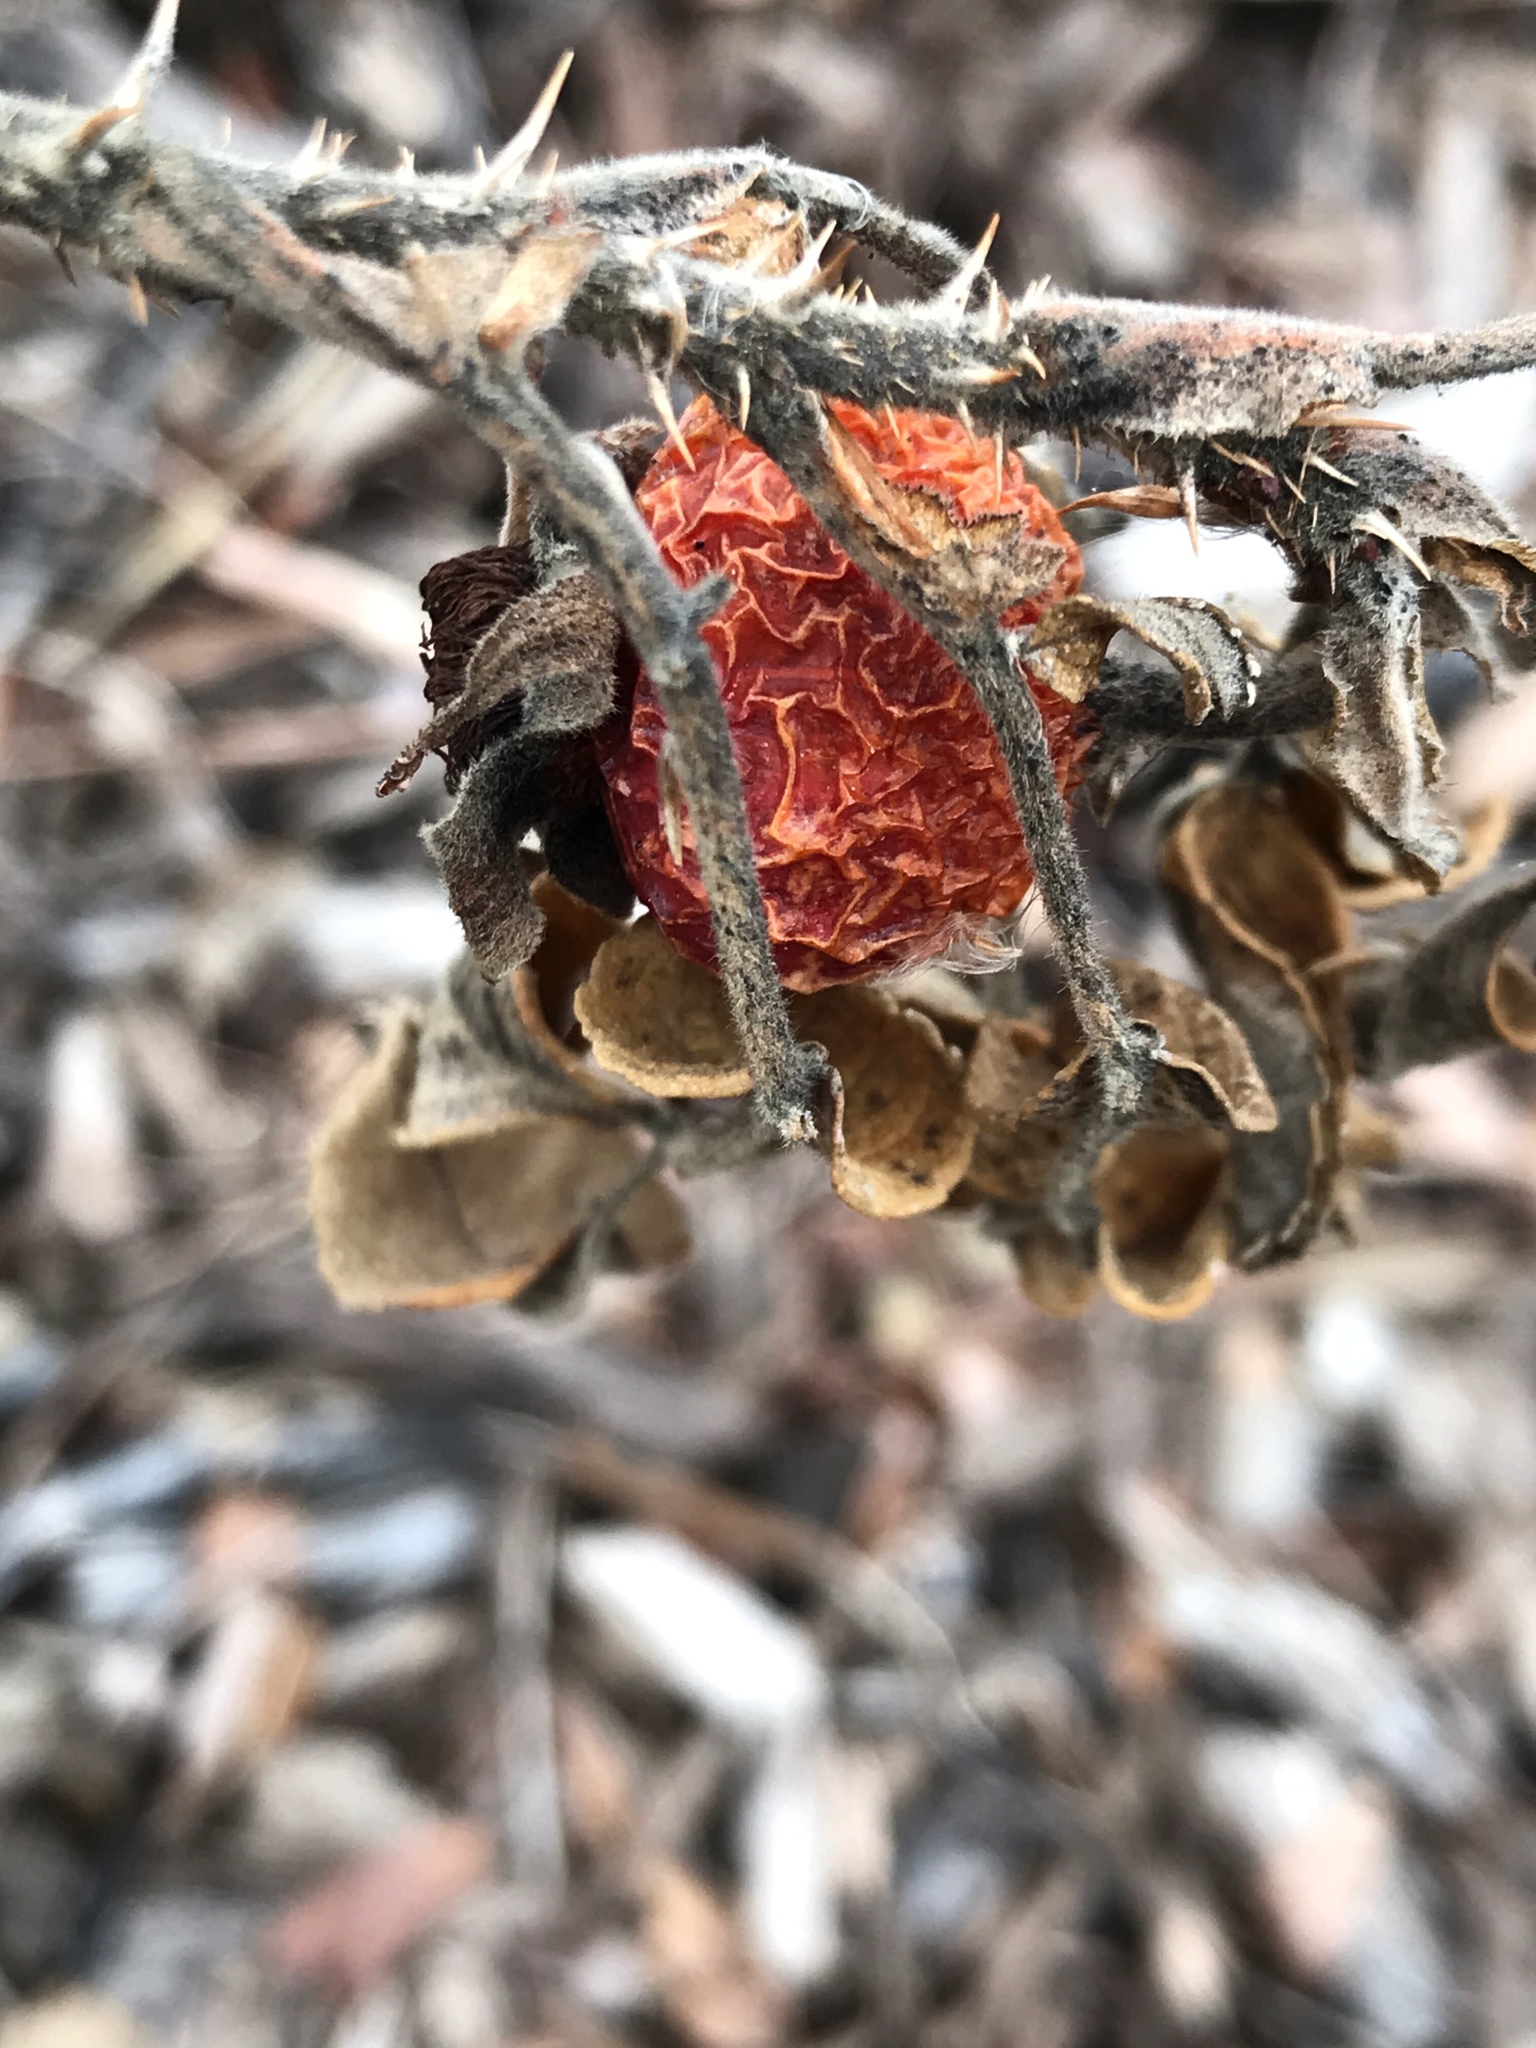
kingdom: Plantae
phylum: Tracheophyta
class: Magnoliopsida
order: Rosales
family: Rosaceae
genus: Rosa
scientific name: Rosa rugosa
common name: Japanese rose
